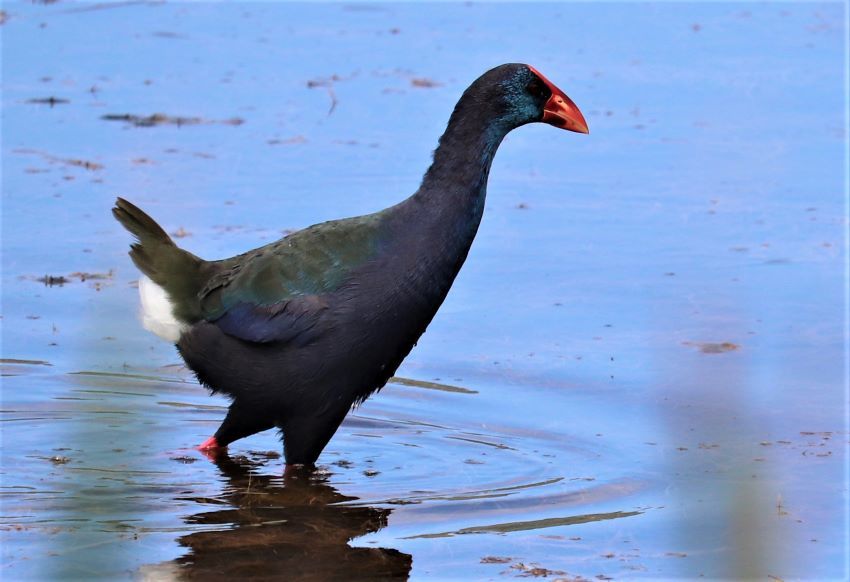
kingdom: Animalia
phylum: Chordata
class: Aves
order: Gruiformes
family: Rallidae
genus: Porphyrio
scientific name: Porphyrio porphyrio
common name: Purple swamphen
